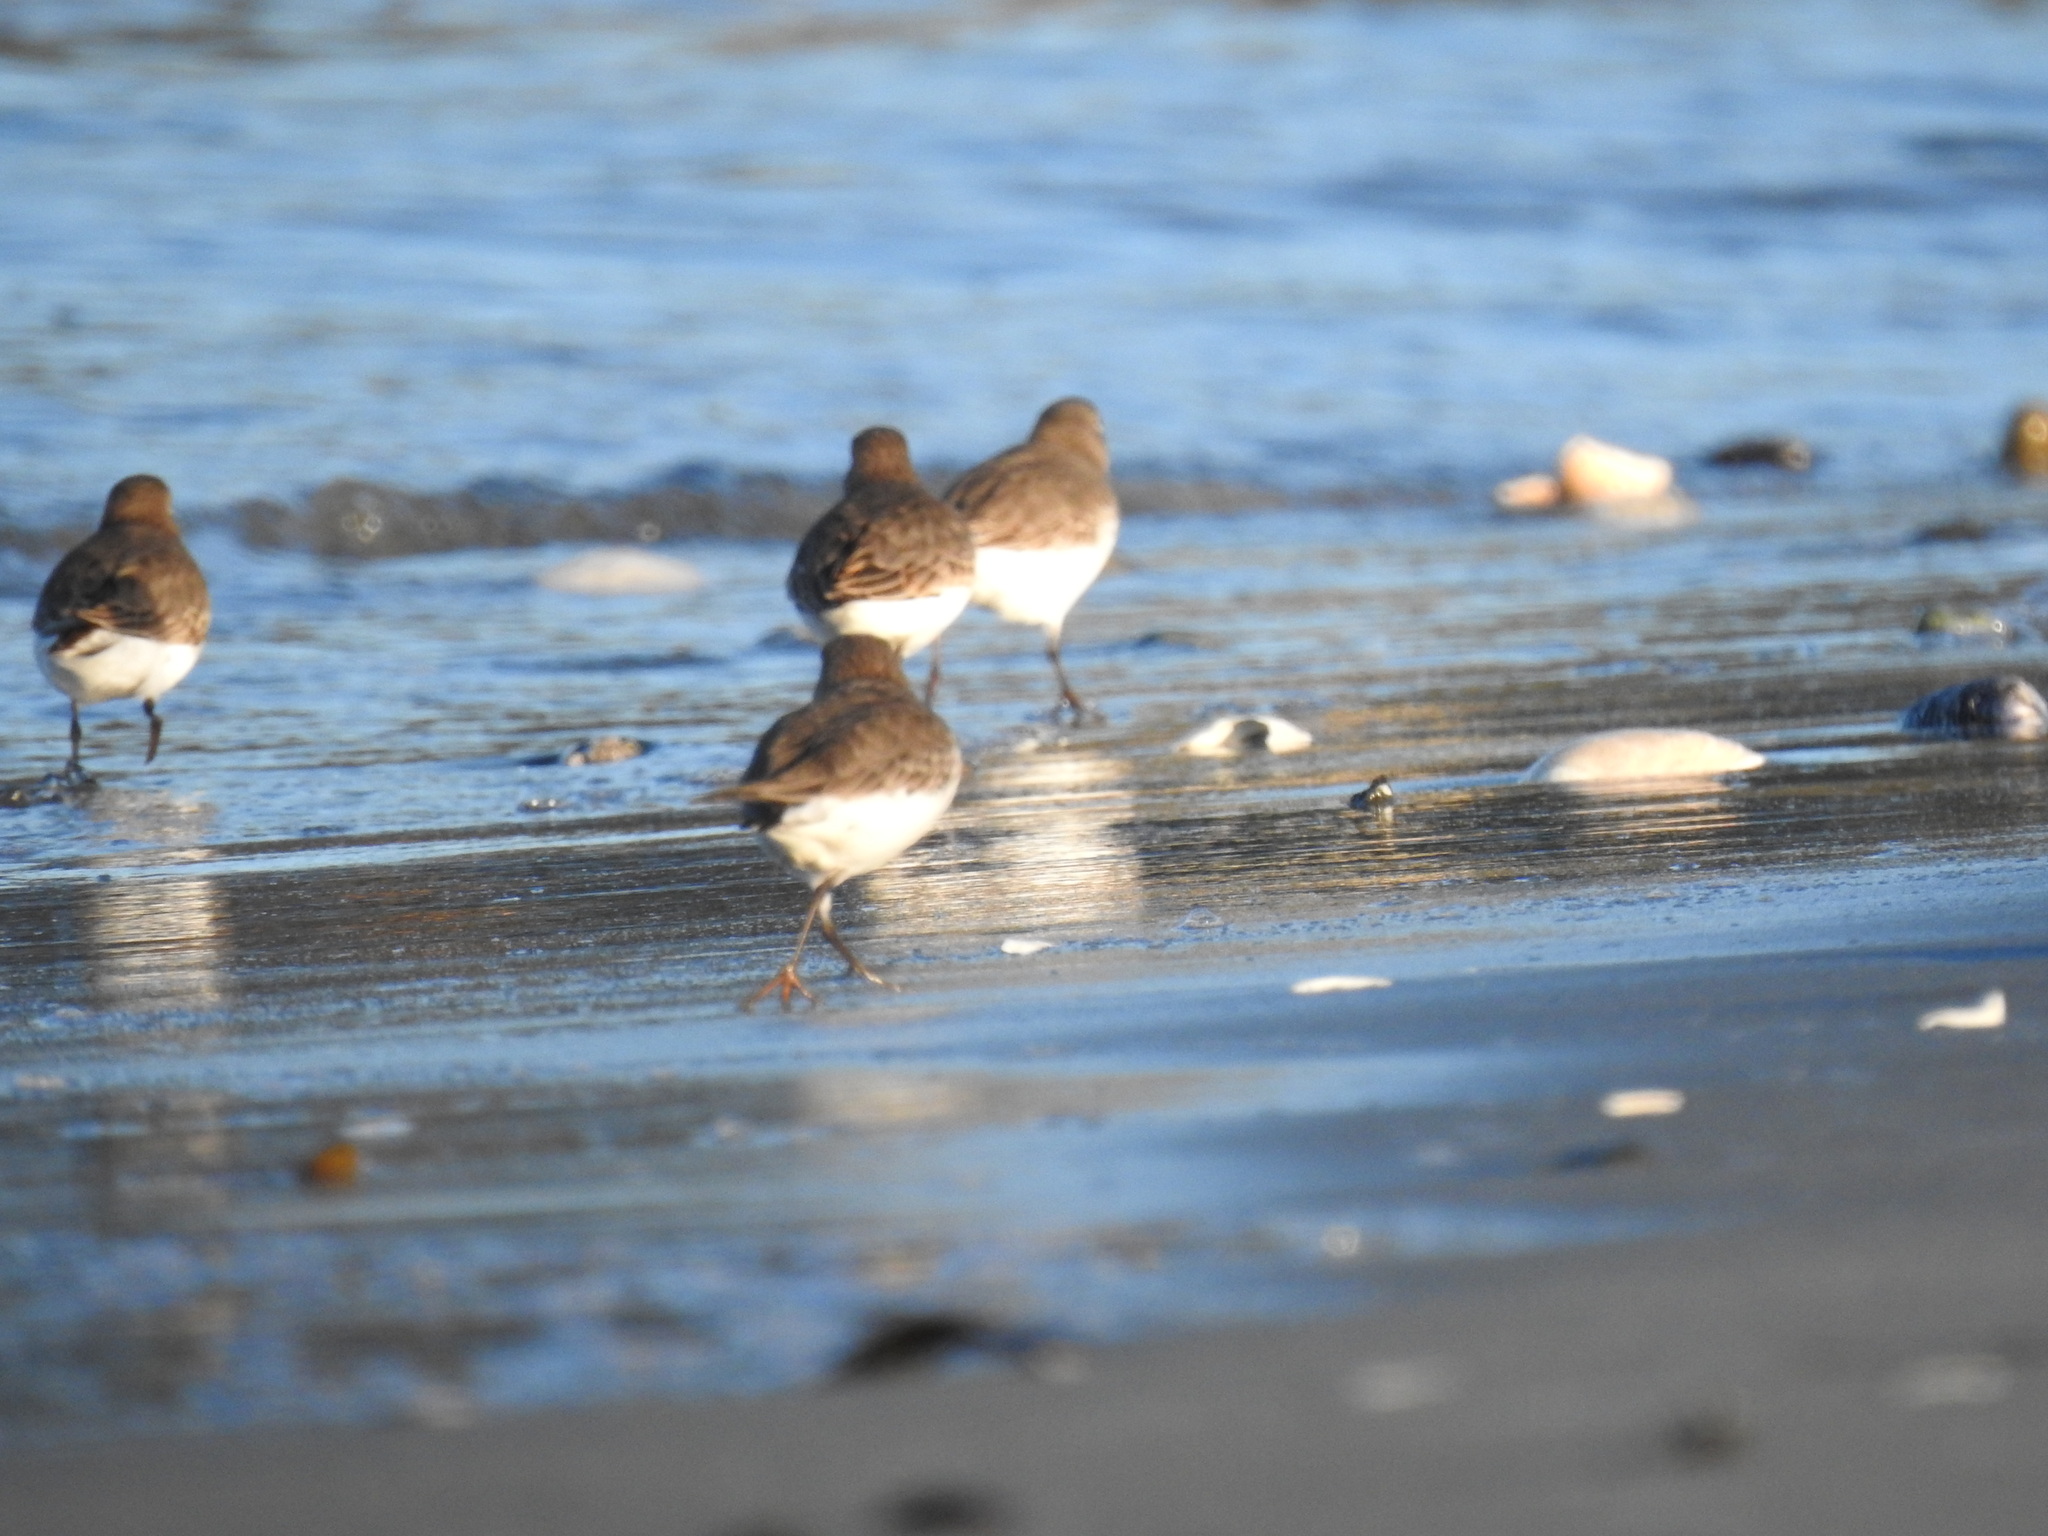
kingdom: Animalia
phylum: Chordata
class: Aves
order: Charadriiformes
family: Scolopacidae
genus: Calidris
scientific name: Calidris alpina
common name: Dunlin
